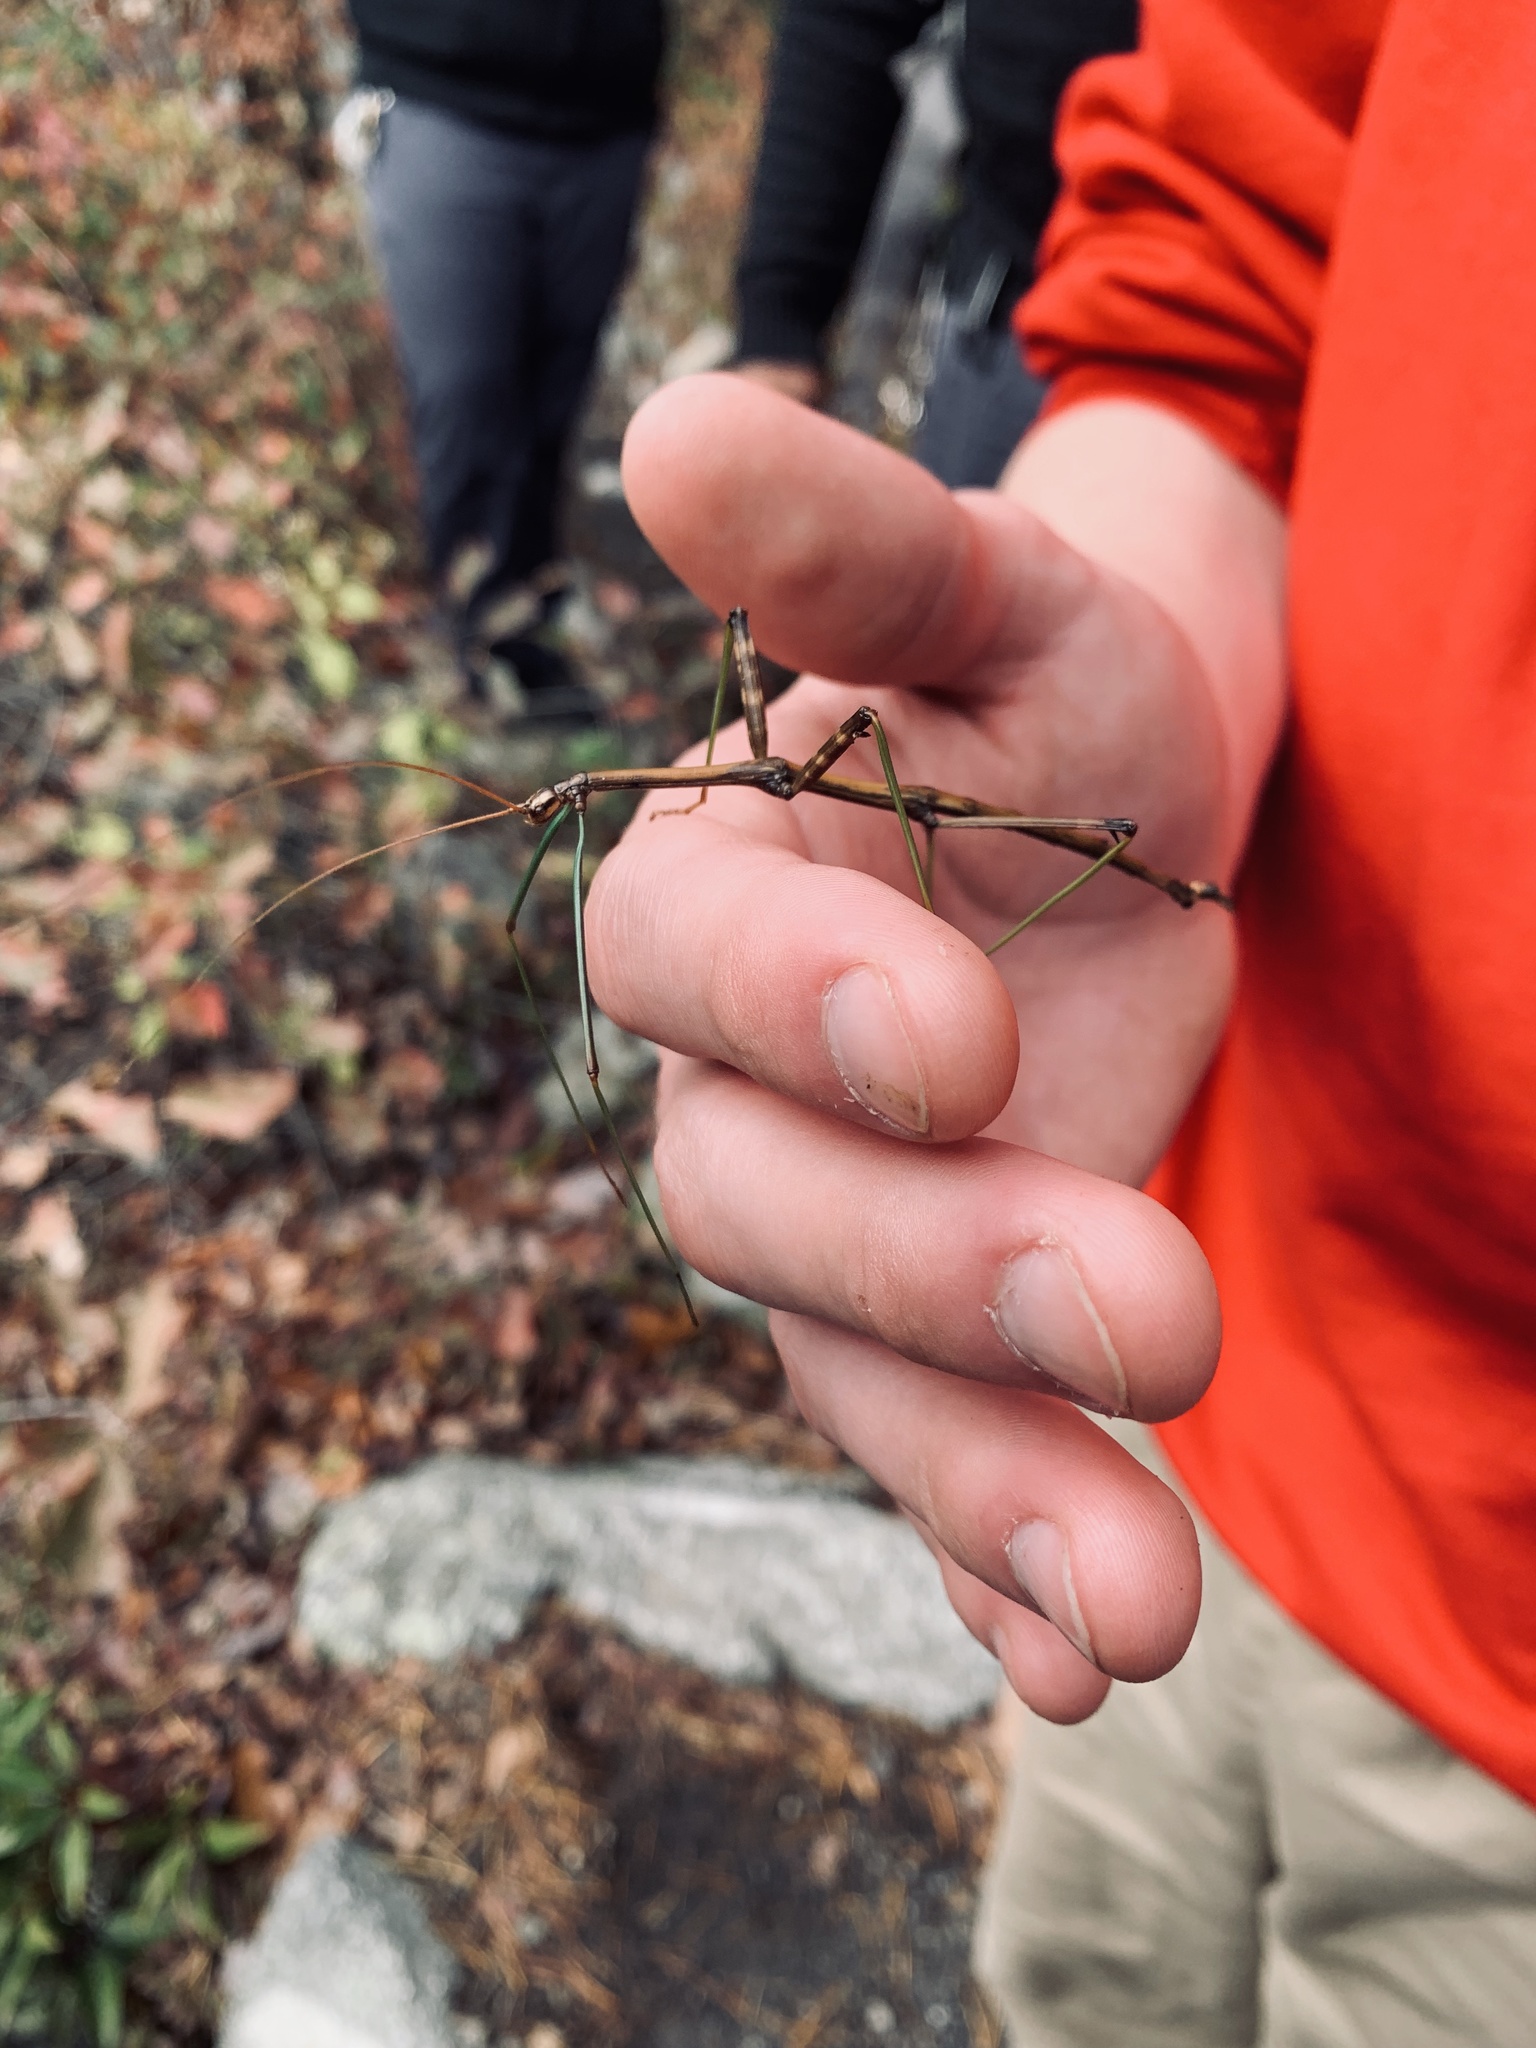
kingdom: Animalia
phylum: Arthropoda
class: Insecta
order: Phasmida
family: Diapheromeridae
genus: Diapheromera
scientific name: Diapheromera femorata
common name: Common american walkingstick
